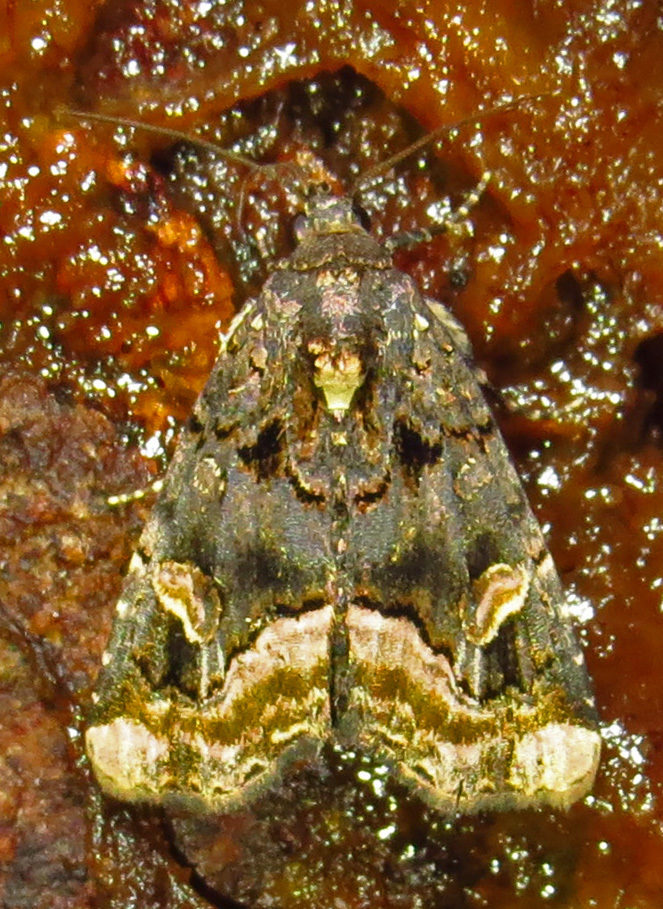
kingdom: Animalia
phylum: Arthropoda
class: Insecta
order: Lepidoptera
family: Noctuidae
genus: Homophoberia
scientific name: Homophoberia apicosa
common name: Black wedge-spot
